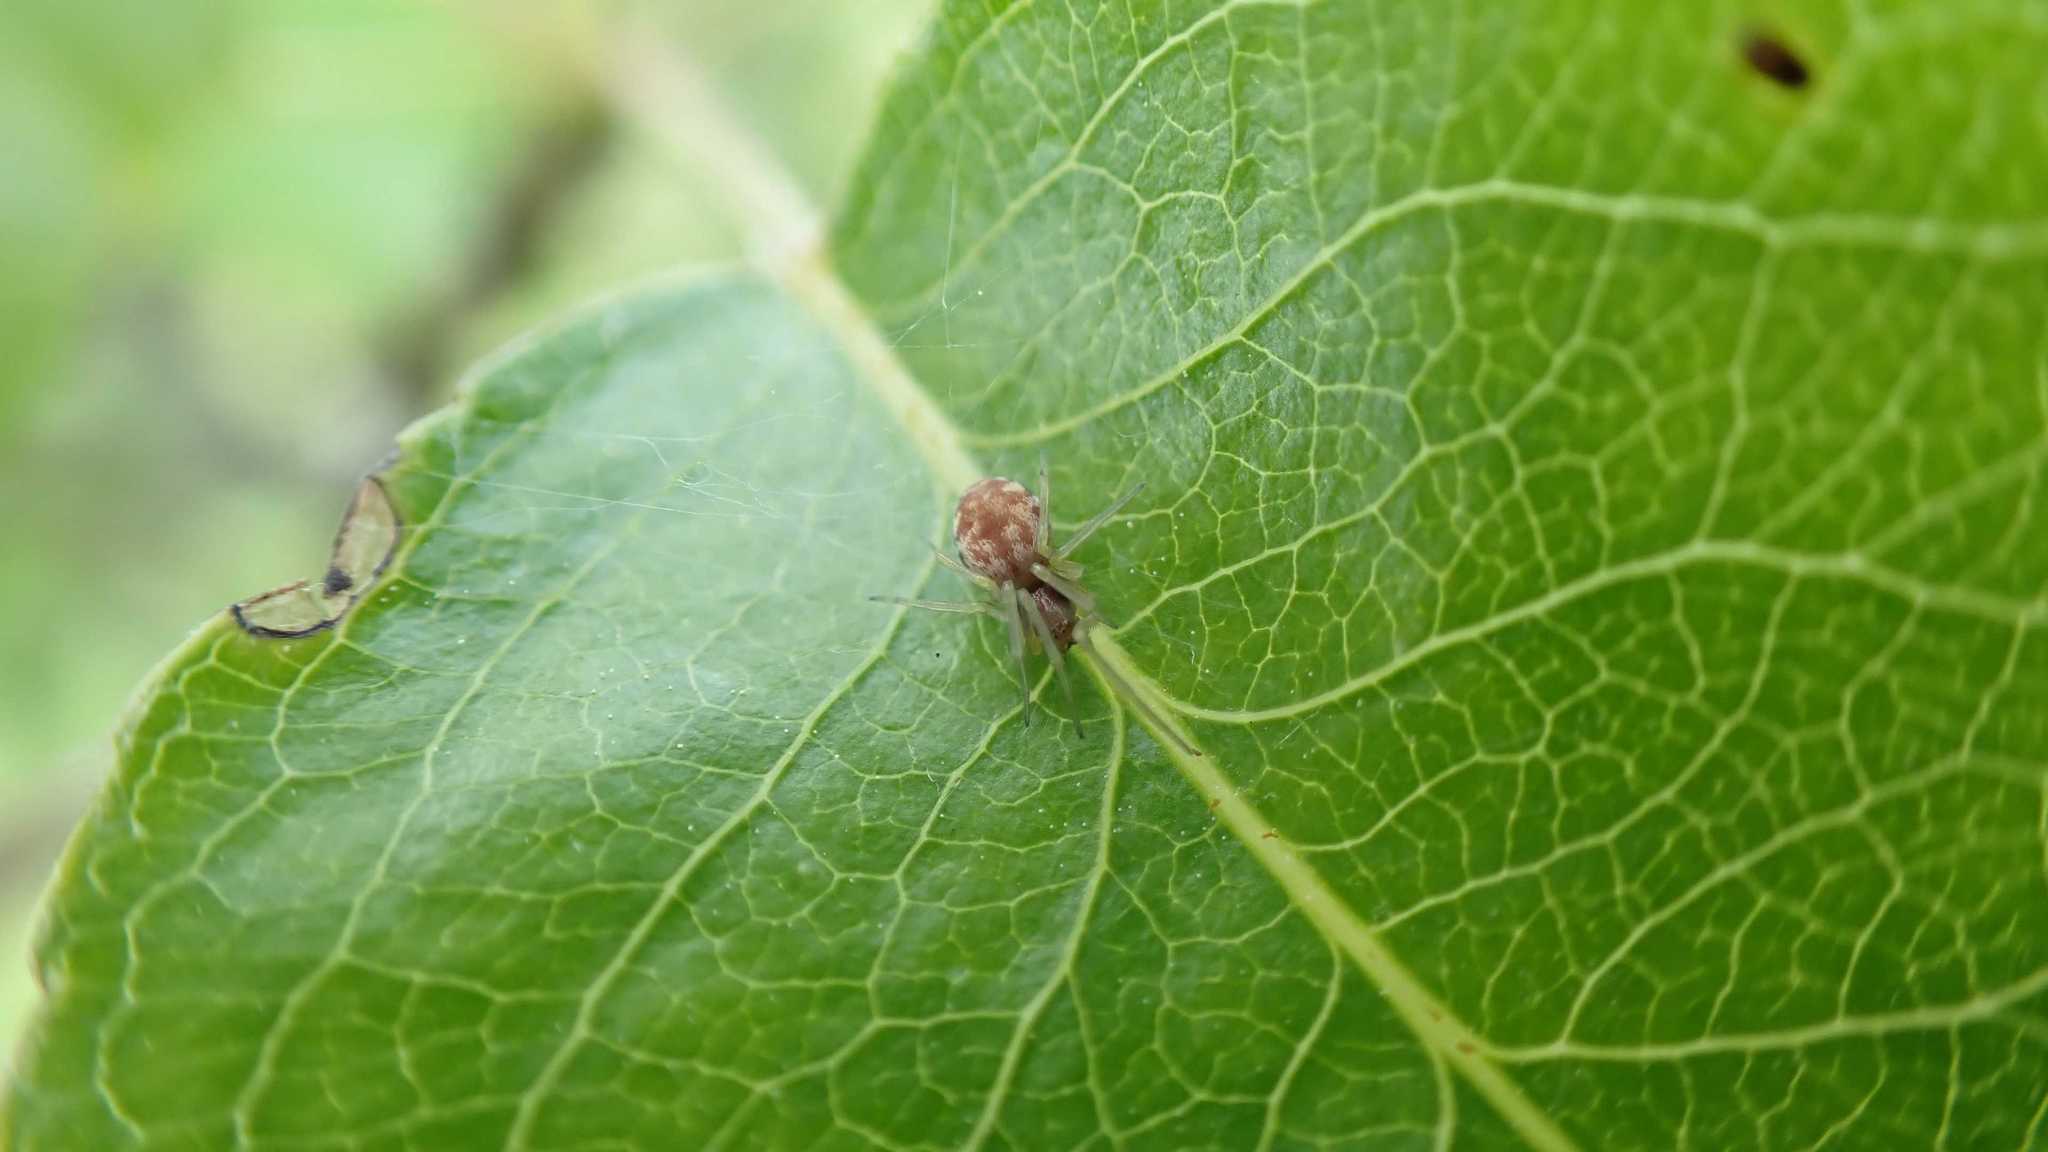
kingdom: Animalia
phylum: Arthropoda
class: Arachnida
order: Araneae
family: Dictynidae
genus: Nigma
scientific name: Nigma flavescens
